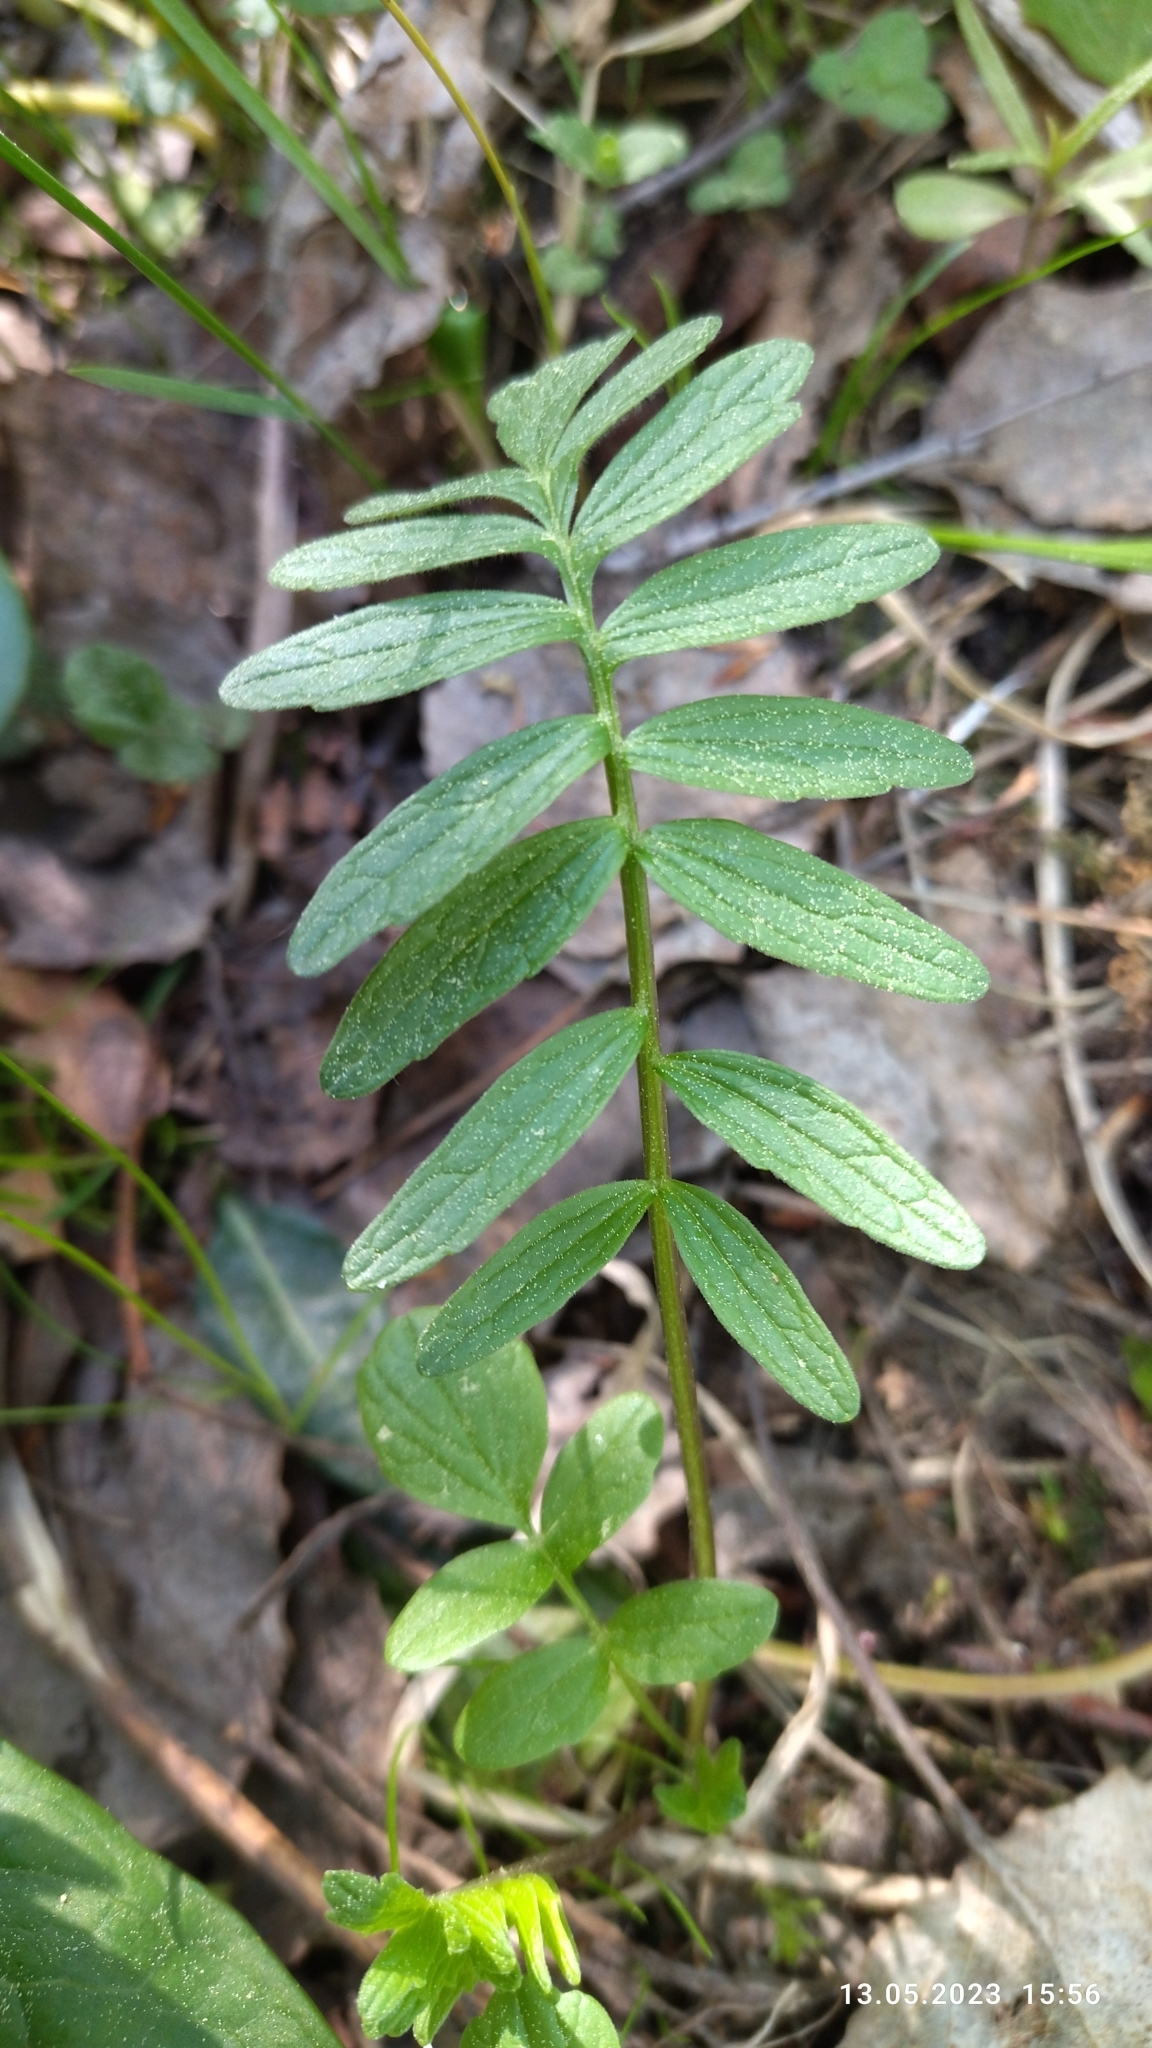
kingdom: Plantae
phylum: Tracheophyta
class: Magnoliopsida
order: Dipsacales
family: Caprifoliaceae
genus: Valeriana
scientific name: Valeriana officinalis
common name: Common valerian
